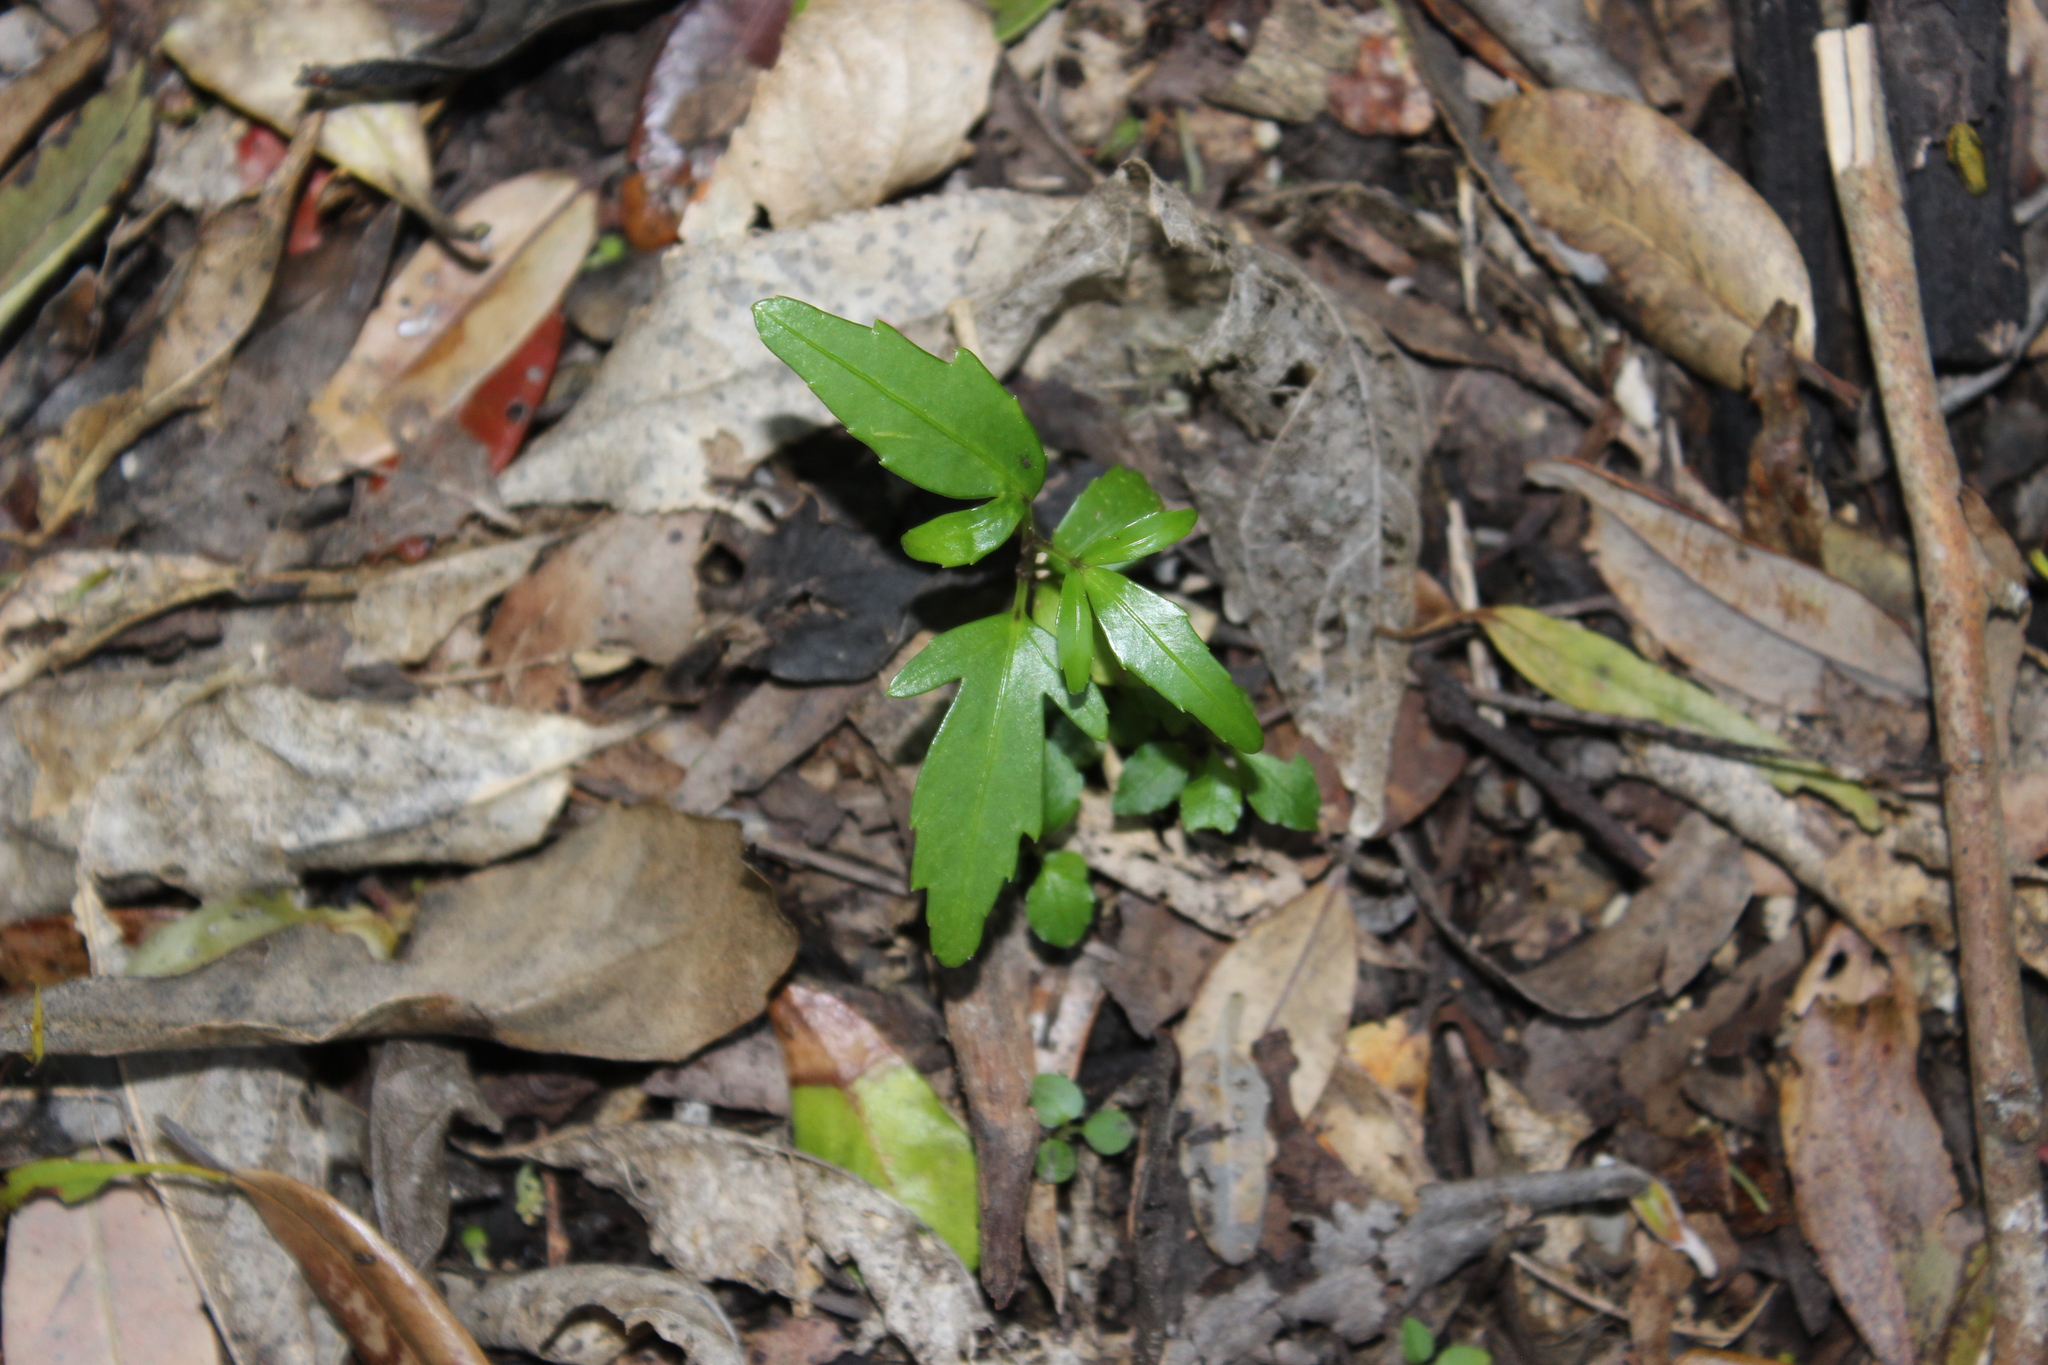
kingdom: Plantae
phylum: Tracheophyta
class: Magnoliopsida
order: Apiales
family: Araliaceae
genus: Pseudopanax
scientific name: Pseudopanax
